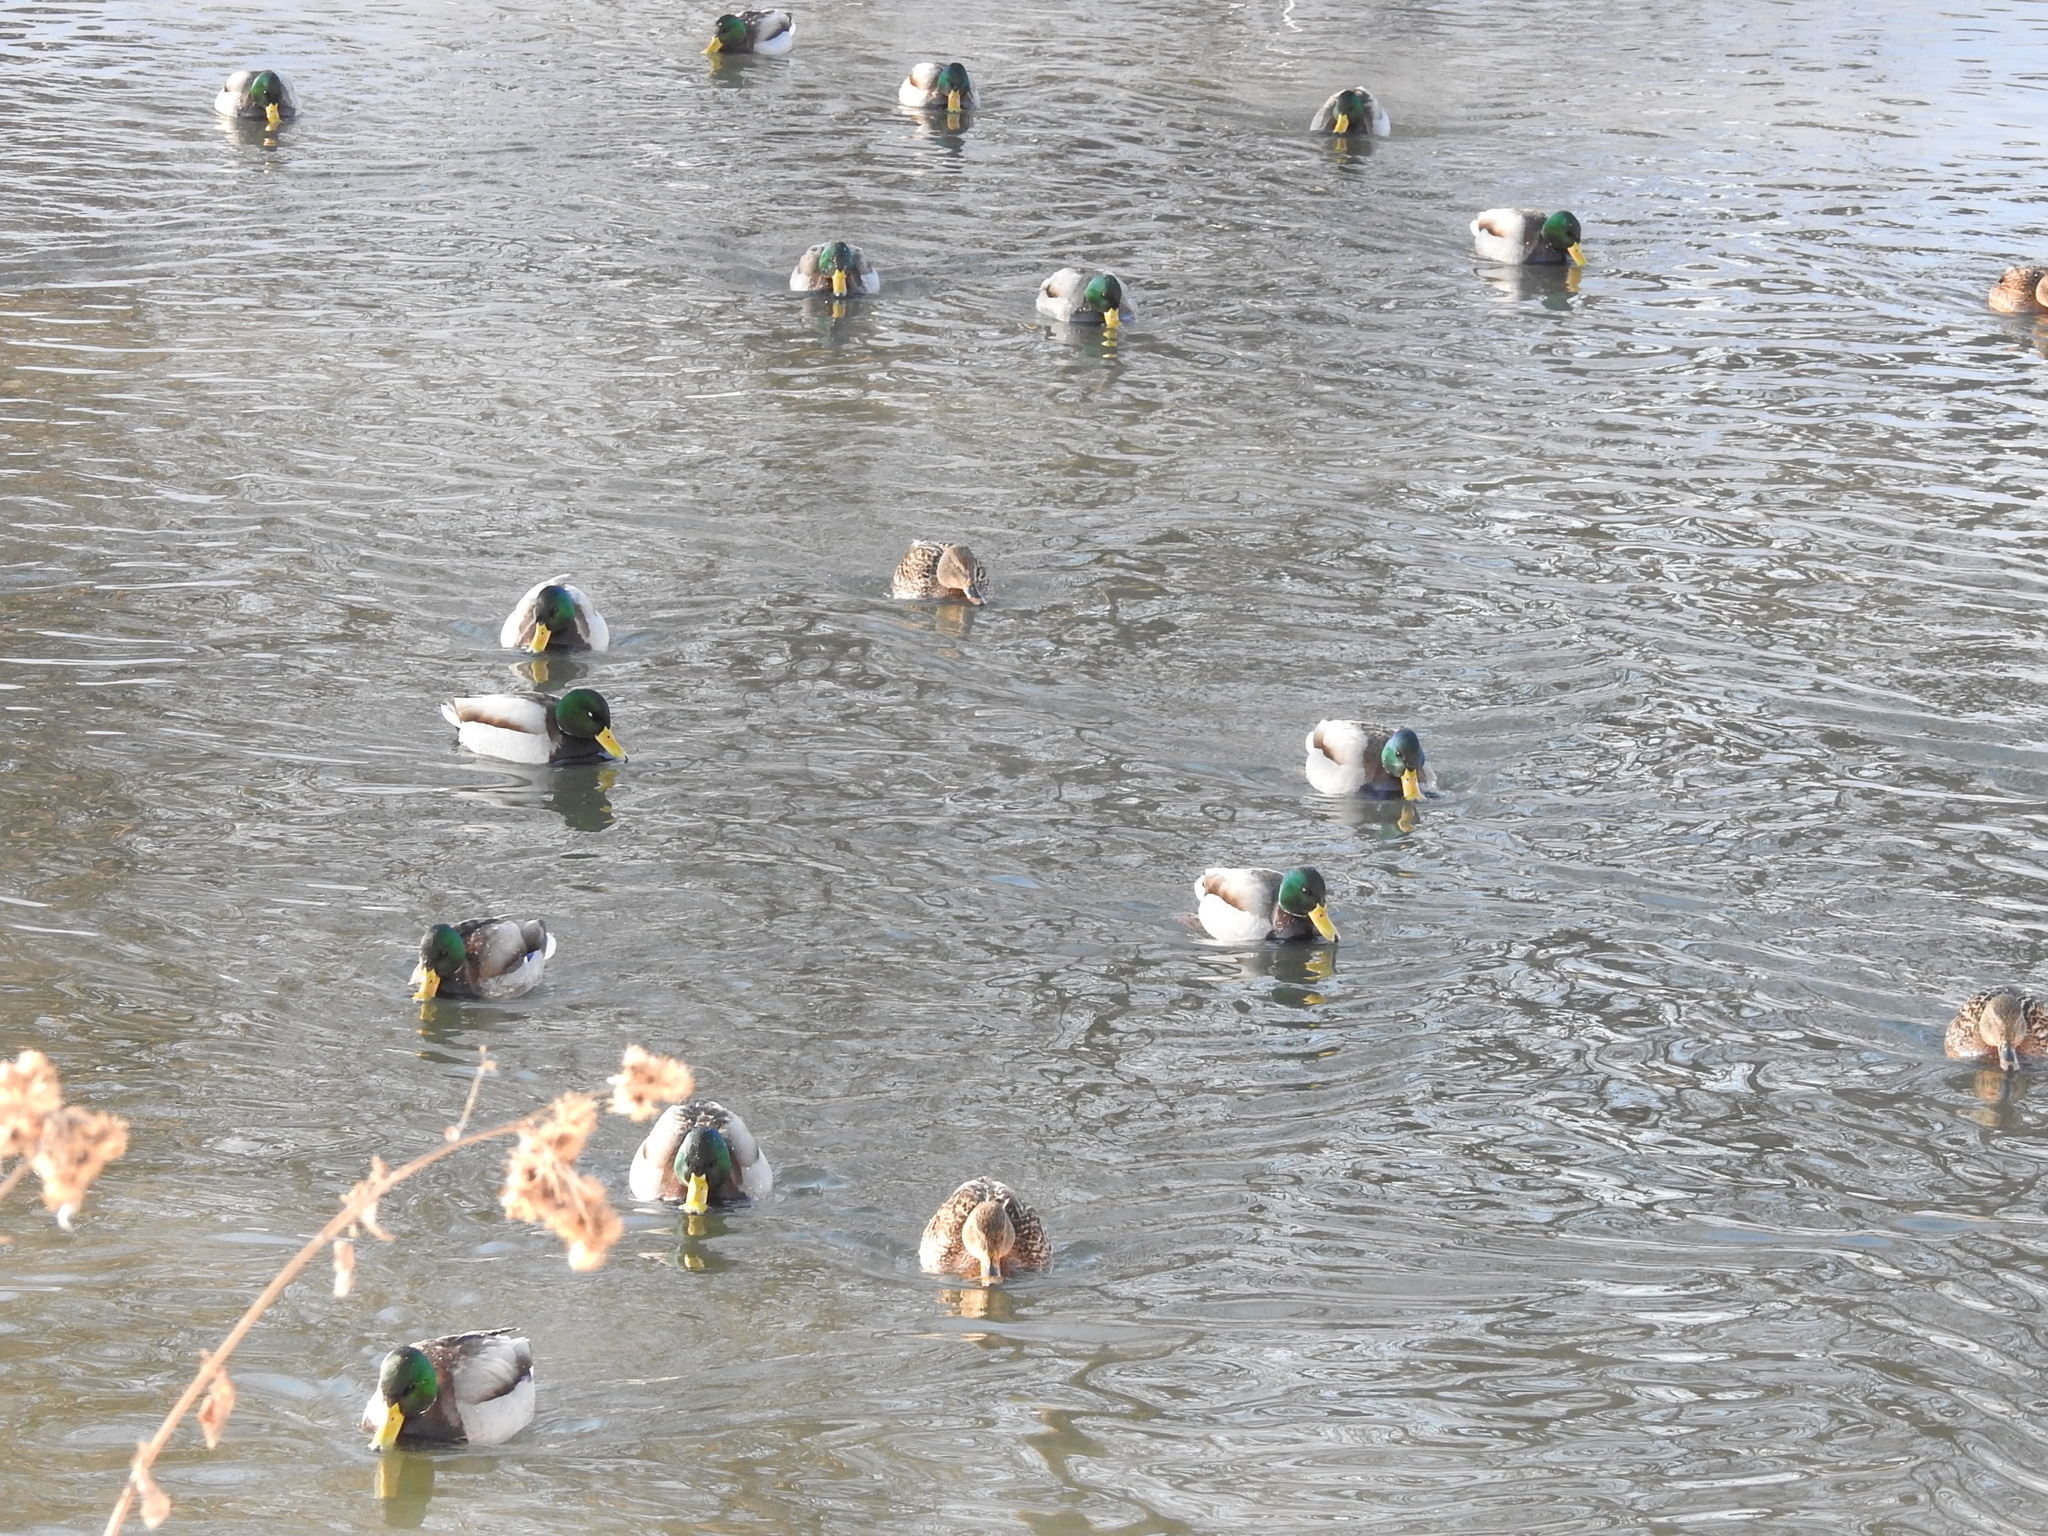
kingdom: Animalia
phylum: Chordata
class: Aves
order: Anseriformes
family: Anatidae
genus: Anas
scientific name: Anas platyrhynchos
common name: Mallard
